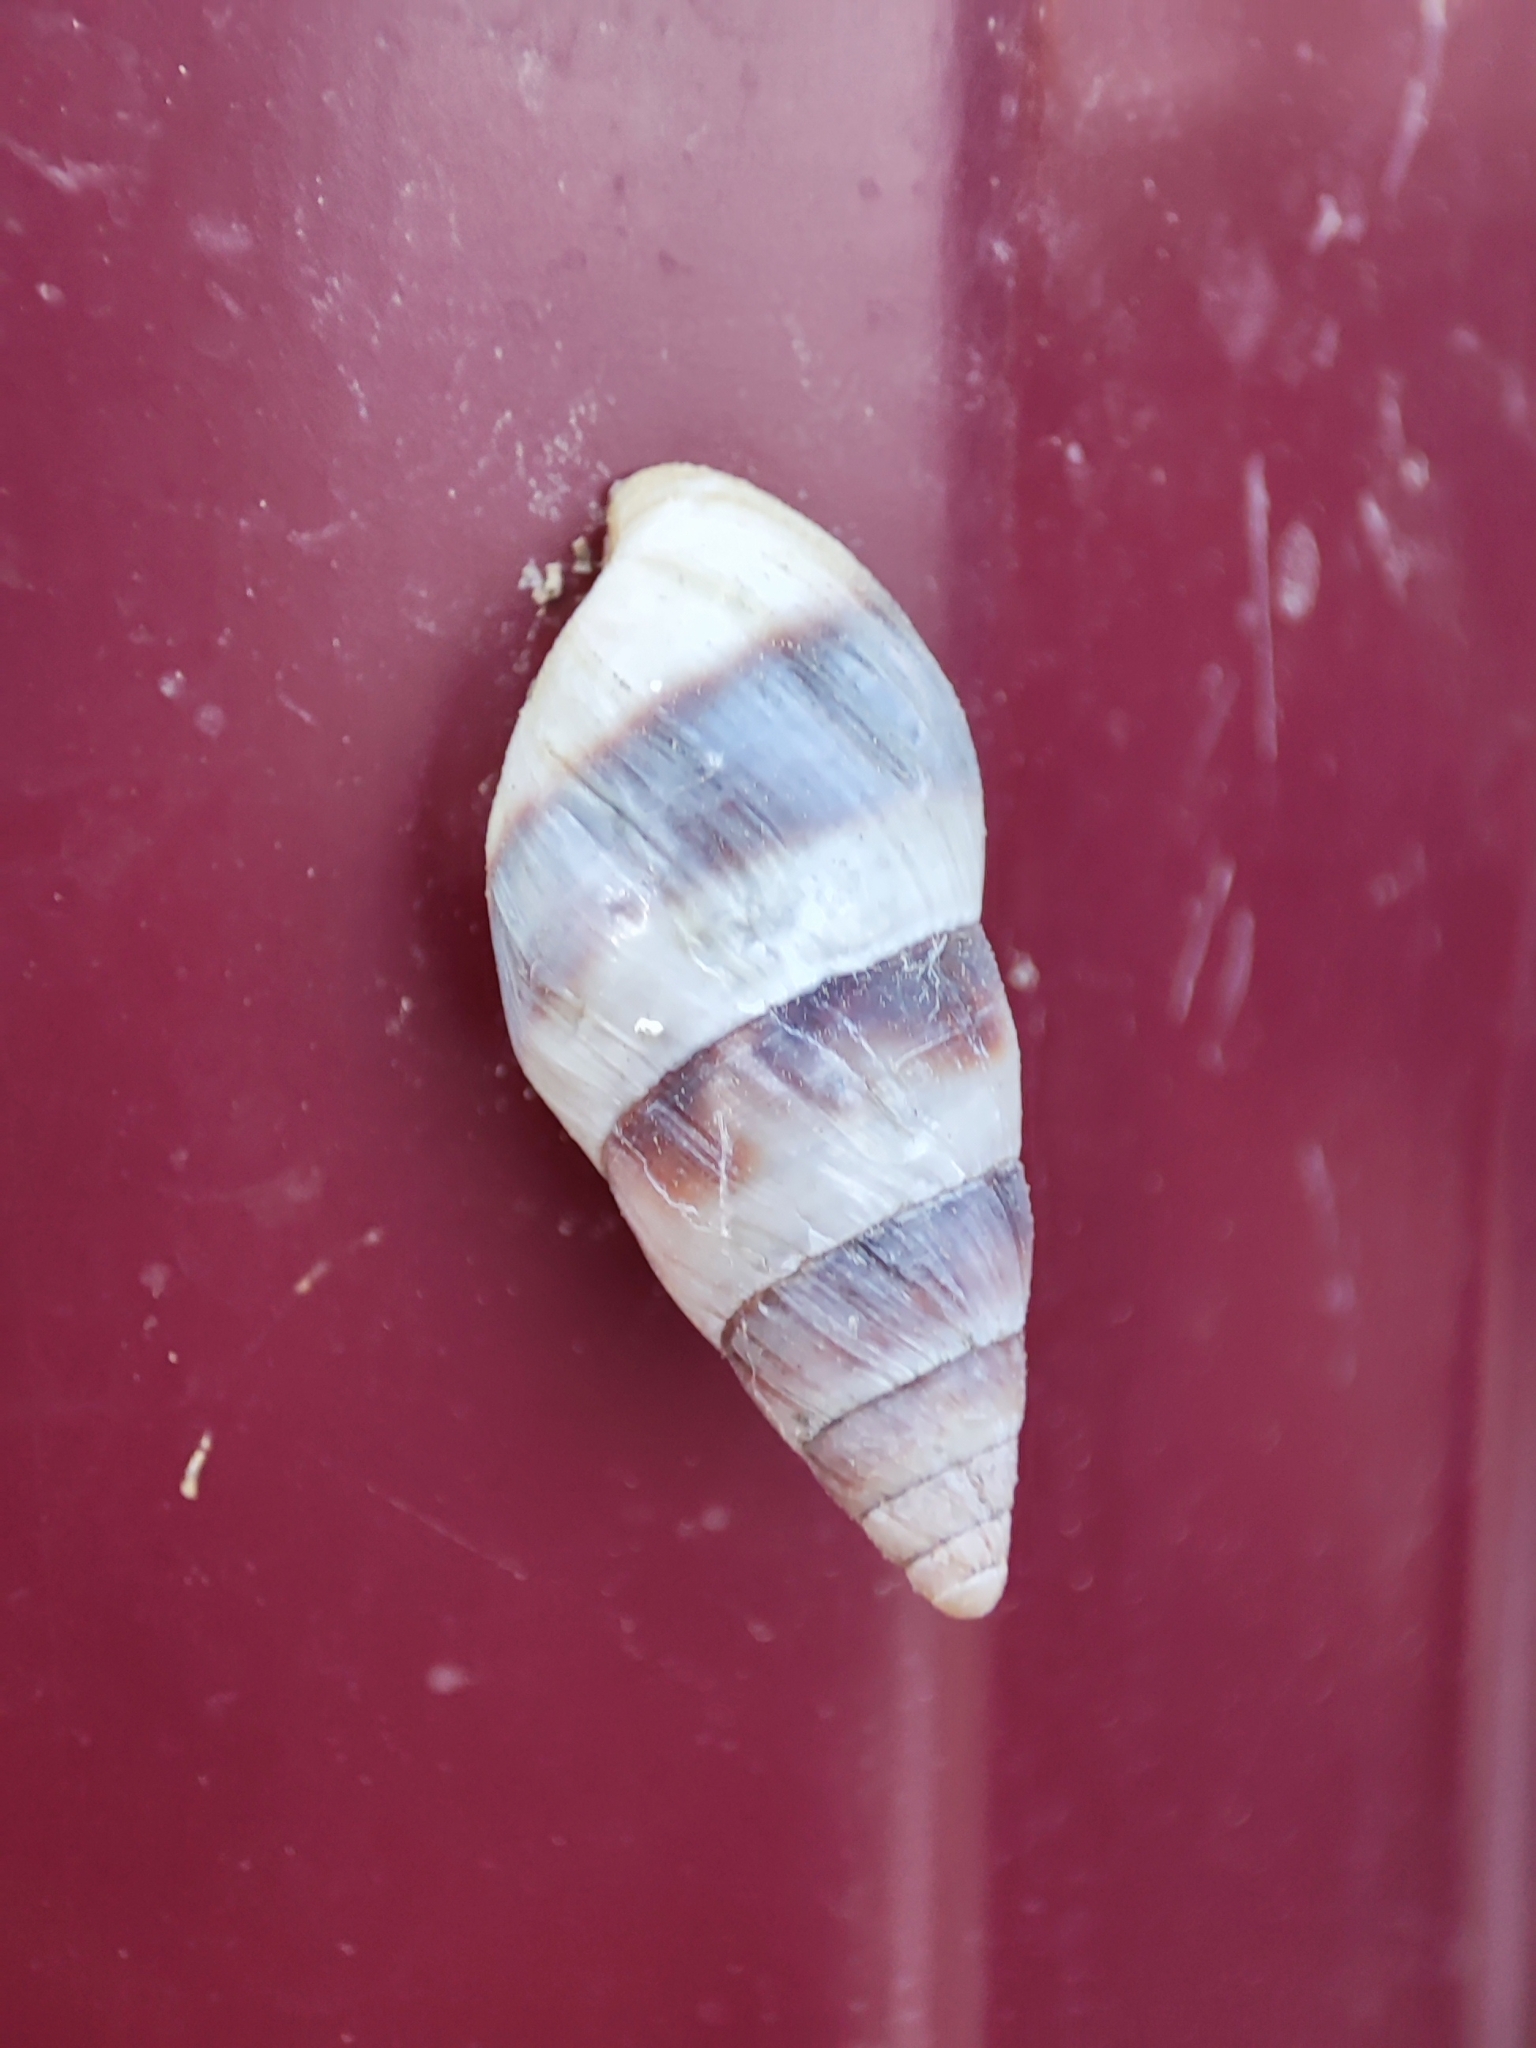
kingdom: Animalia
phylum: Mollusca
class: Gastropoda
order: Stylommatophora
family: Enidae
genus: Caucasicola
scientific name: Caucasicola raddei
